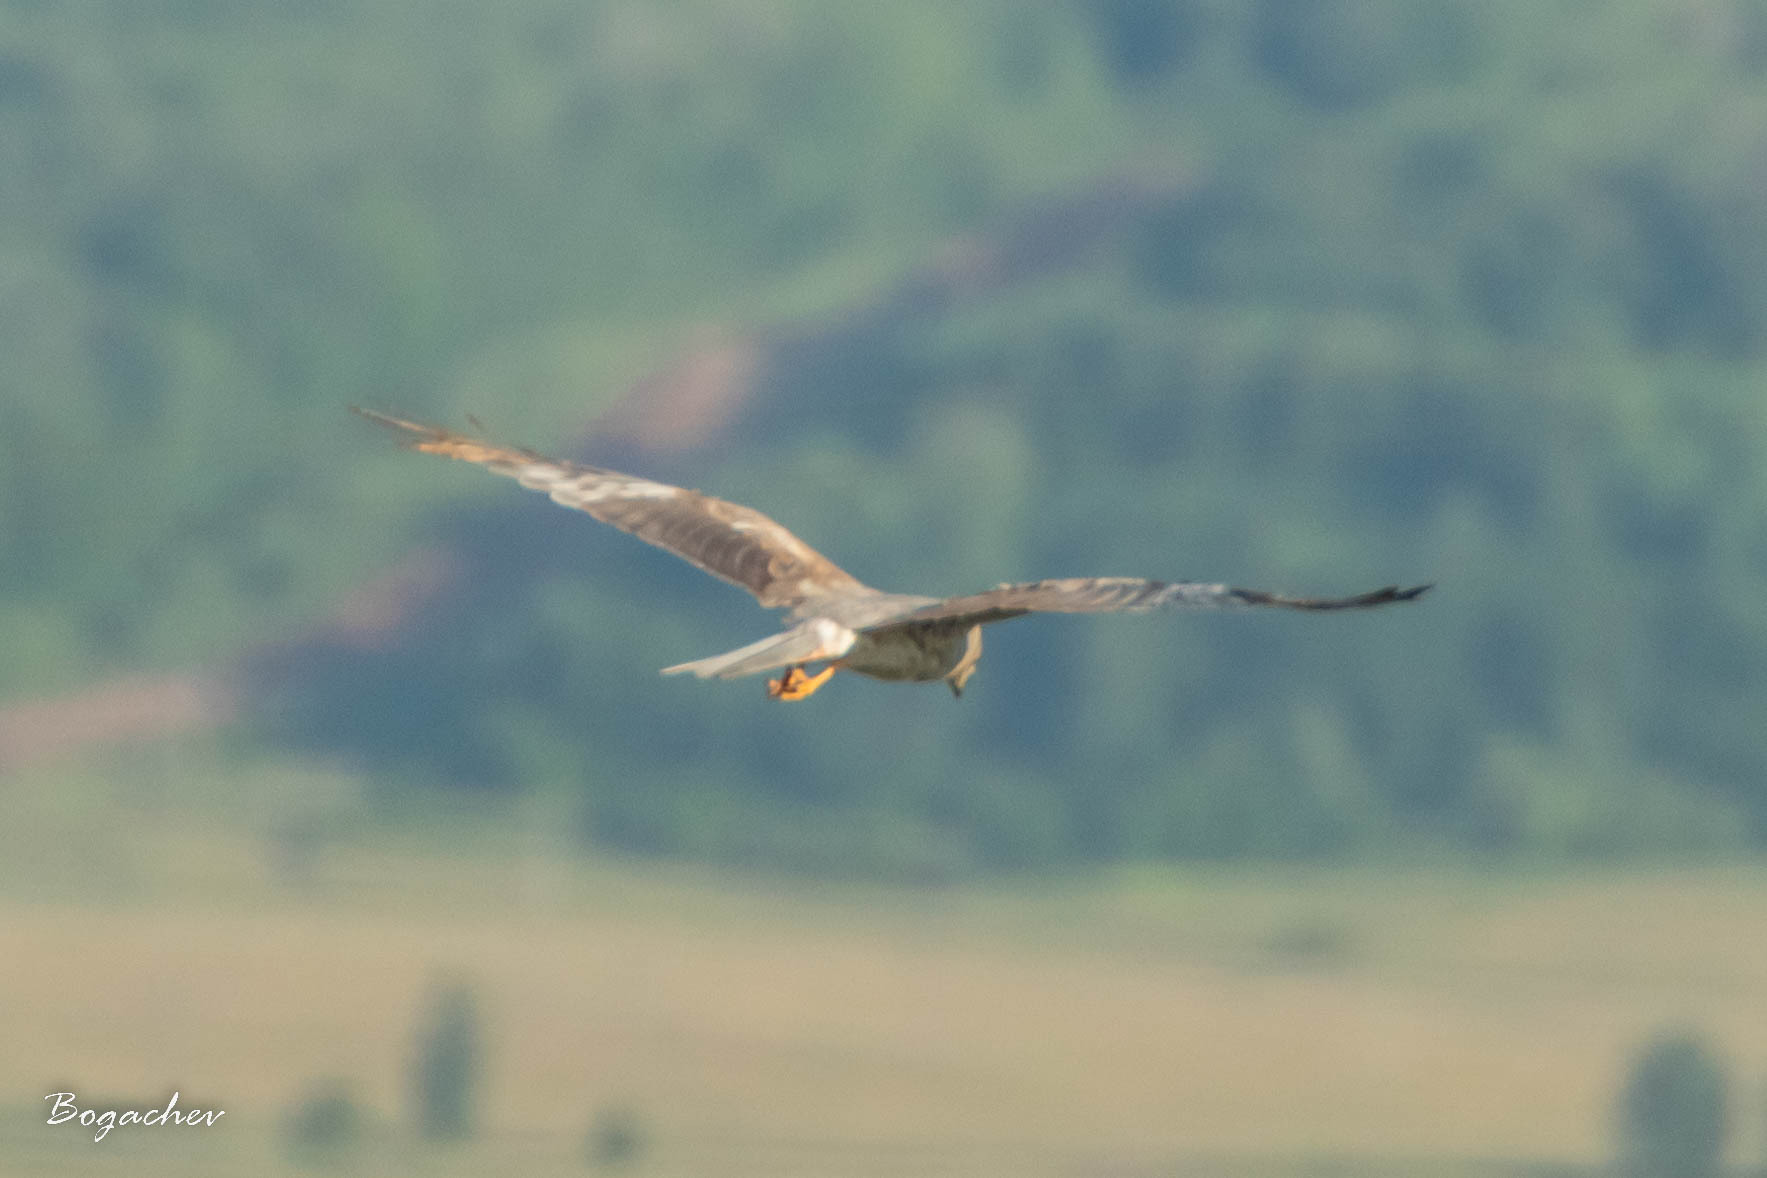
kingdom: Animalia
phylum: Chordata
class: Aves
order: Accipitriformes
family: Accipitridae
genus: Circus
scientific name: Circus pygargus
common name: Montagu's harrier
